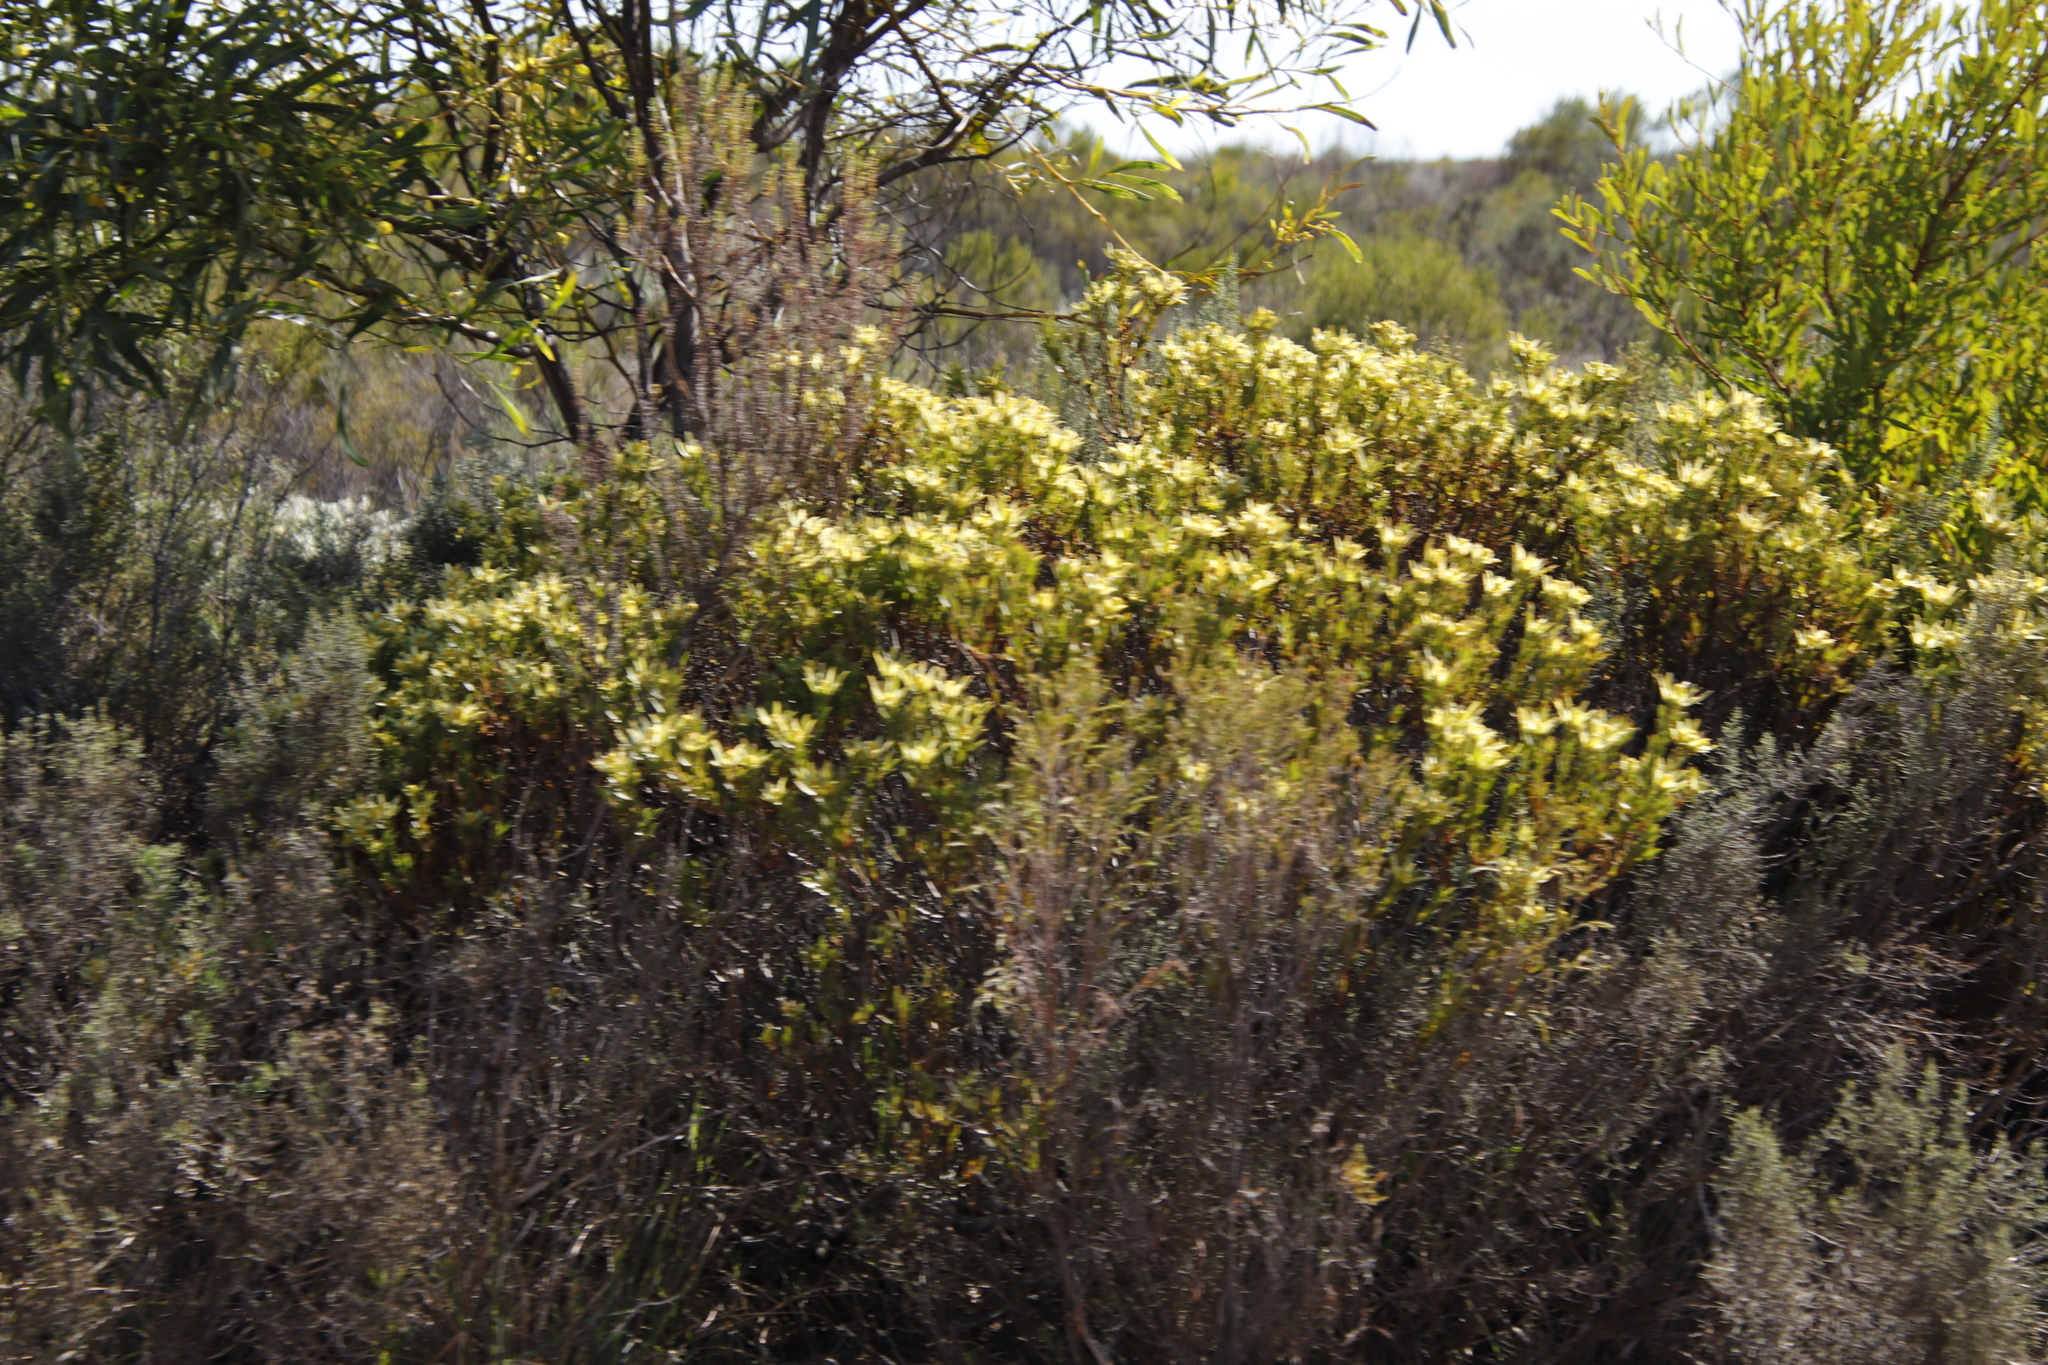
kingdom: Plantae
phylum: Tracheophyta
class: Magnoliopsida
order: Proteales
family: Proteaceae
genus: Leucadendron
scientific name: Leucadendron xanthoconus
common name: Sickle-leaf conebush
